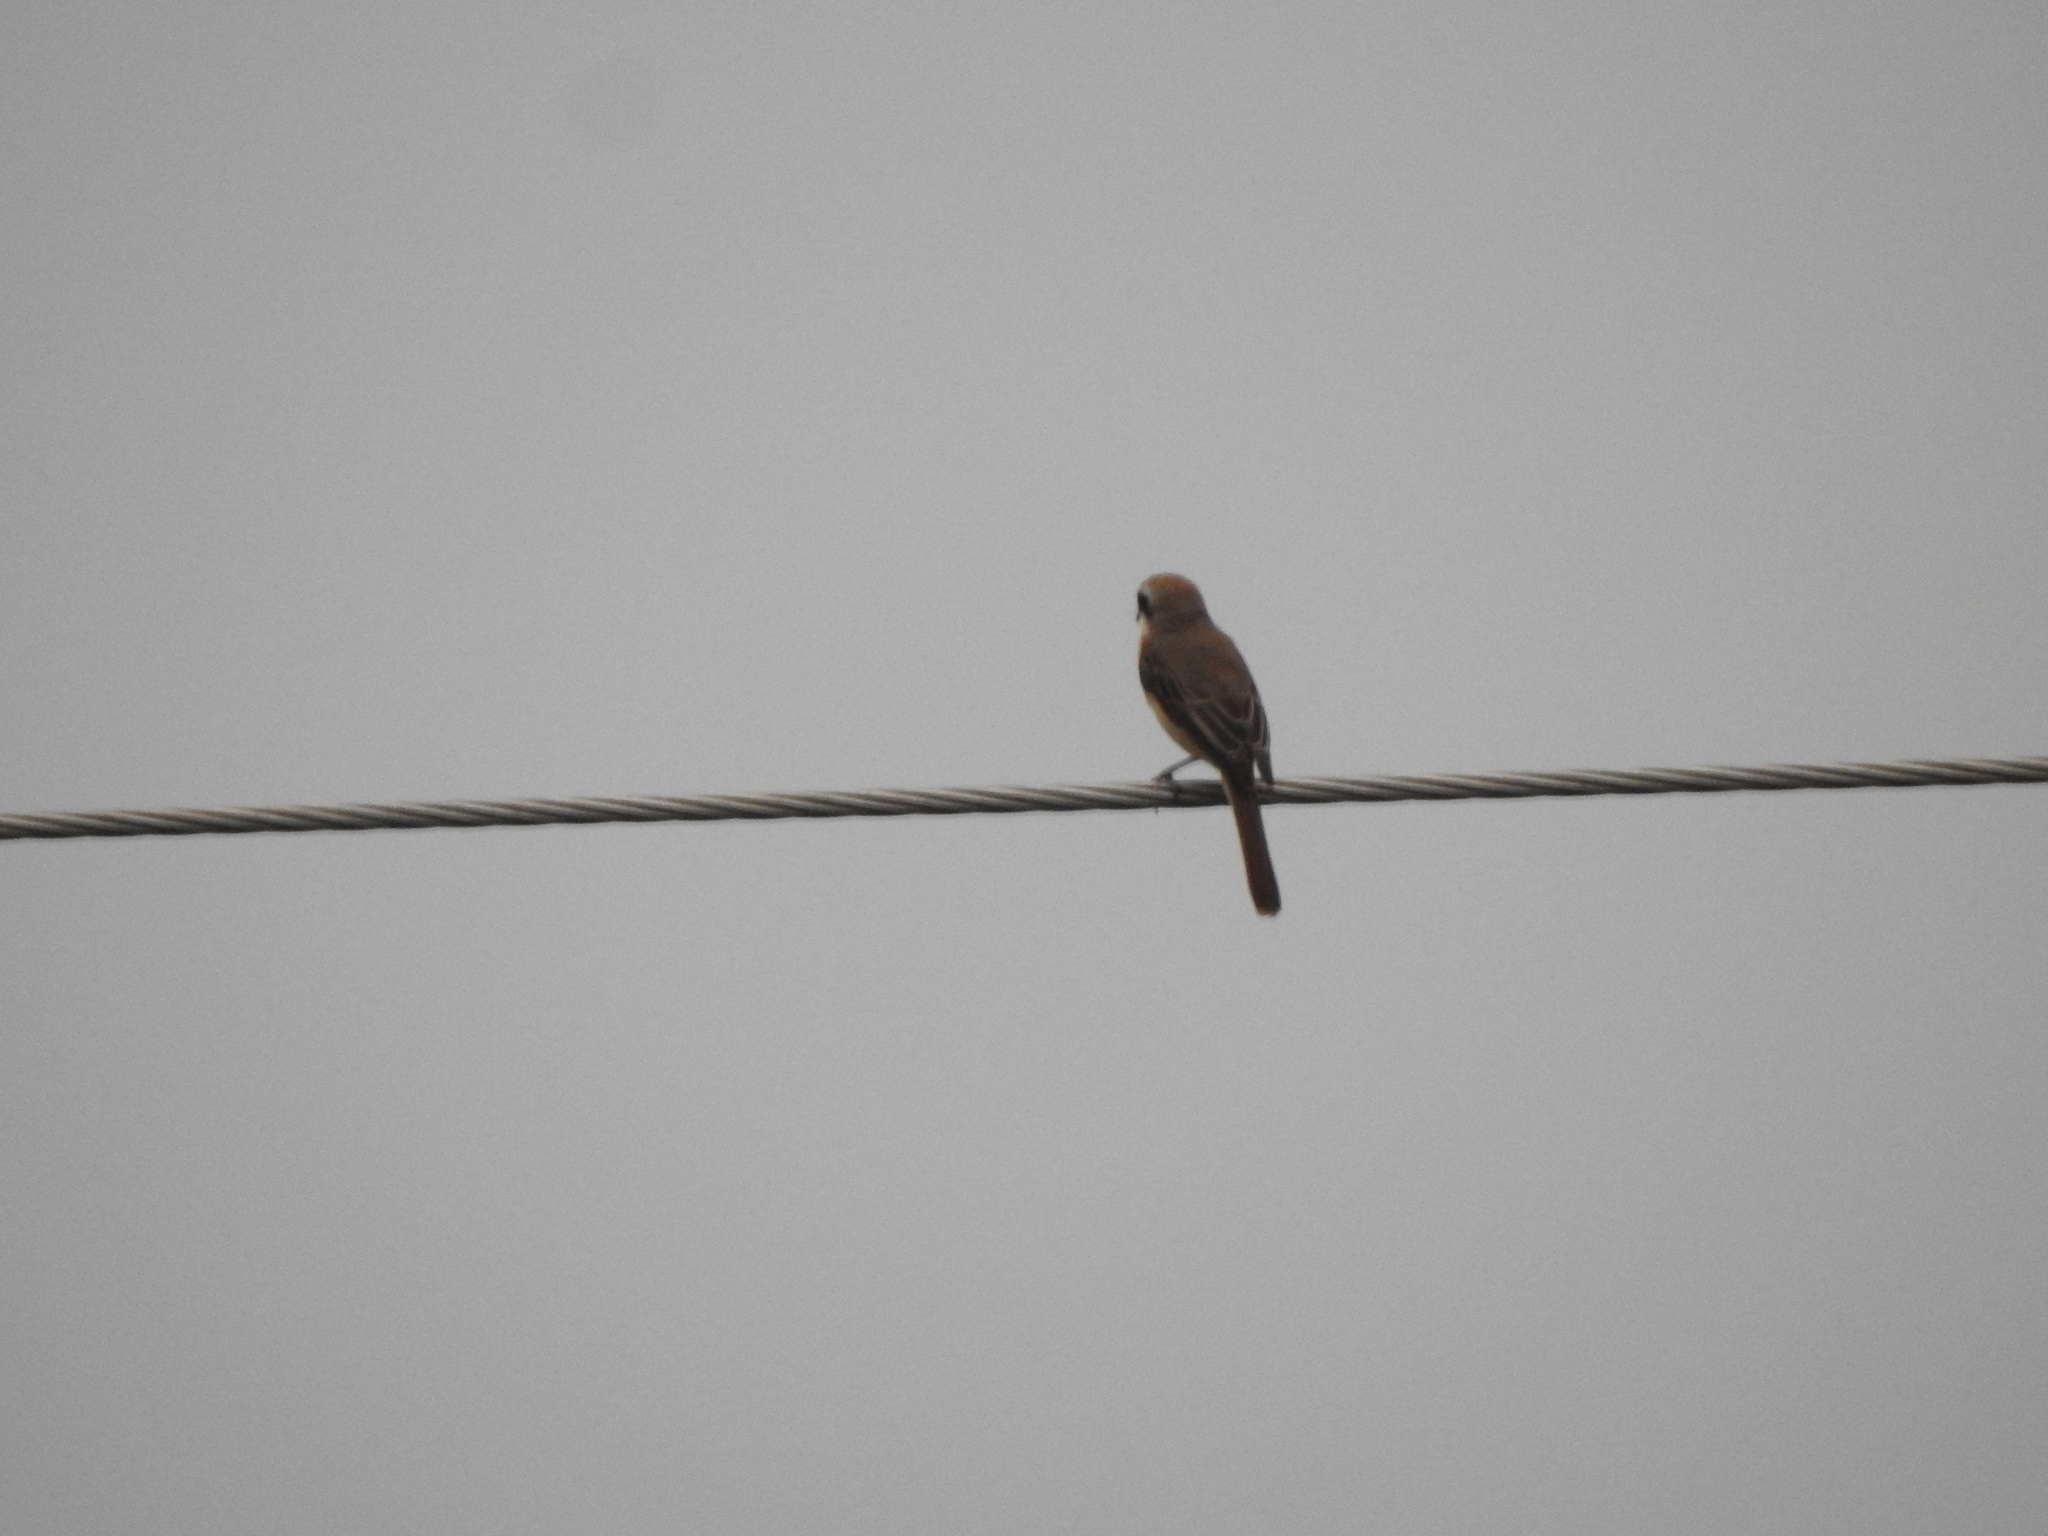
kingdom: Animalia
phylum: Chordata
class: Aves
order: Passeriformes
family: Laniidae
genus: Lanius
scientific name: Lanius cristatus
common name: Brown shrike
